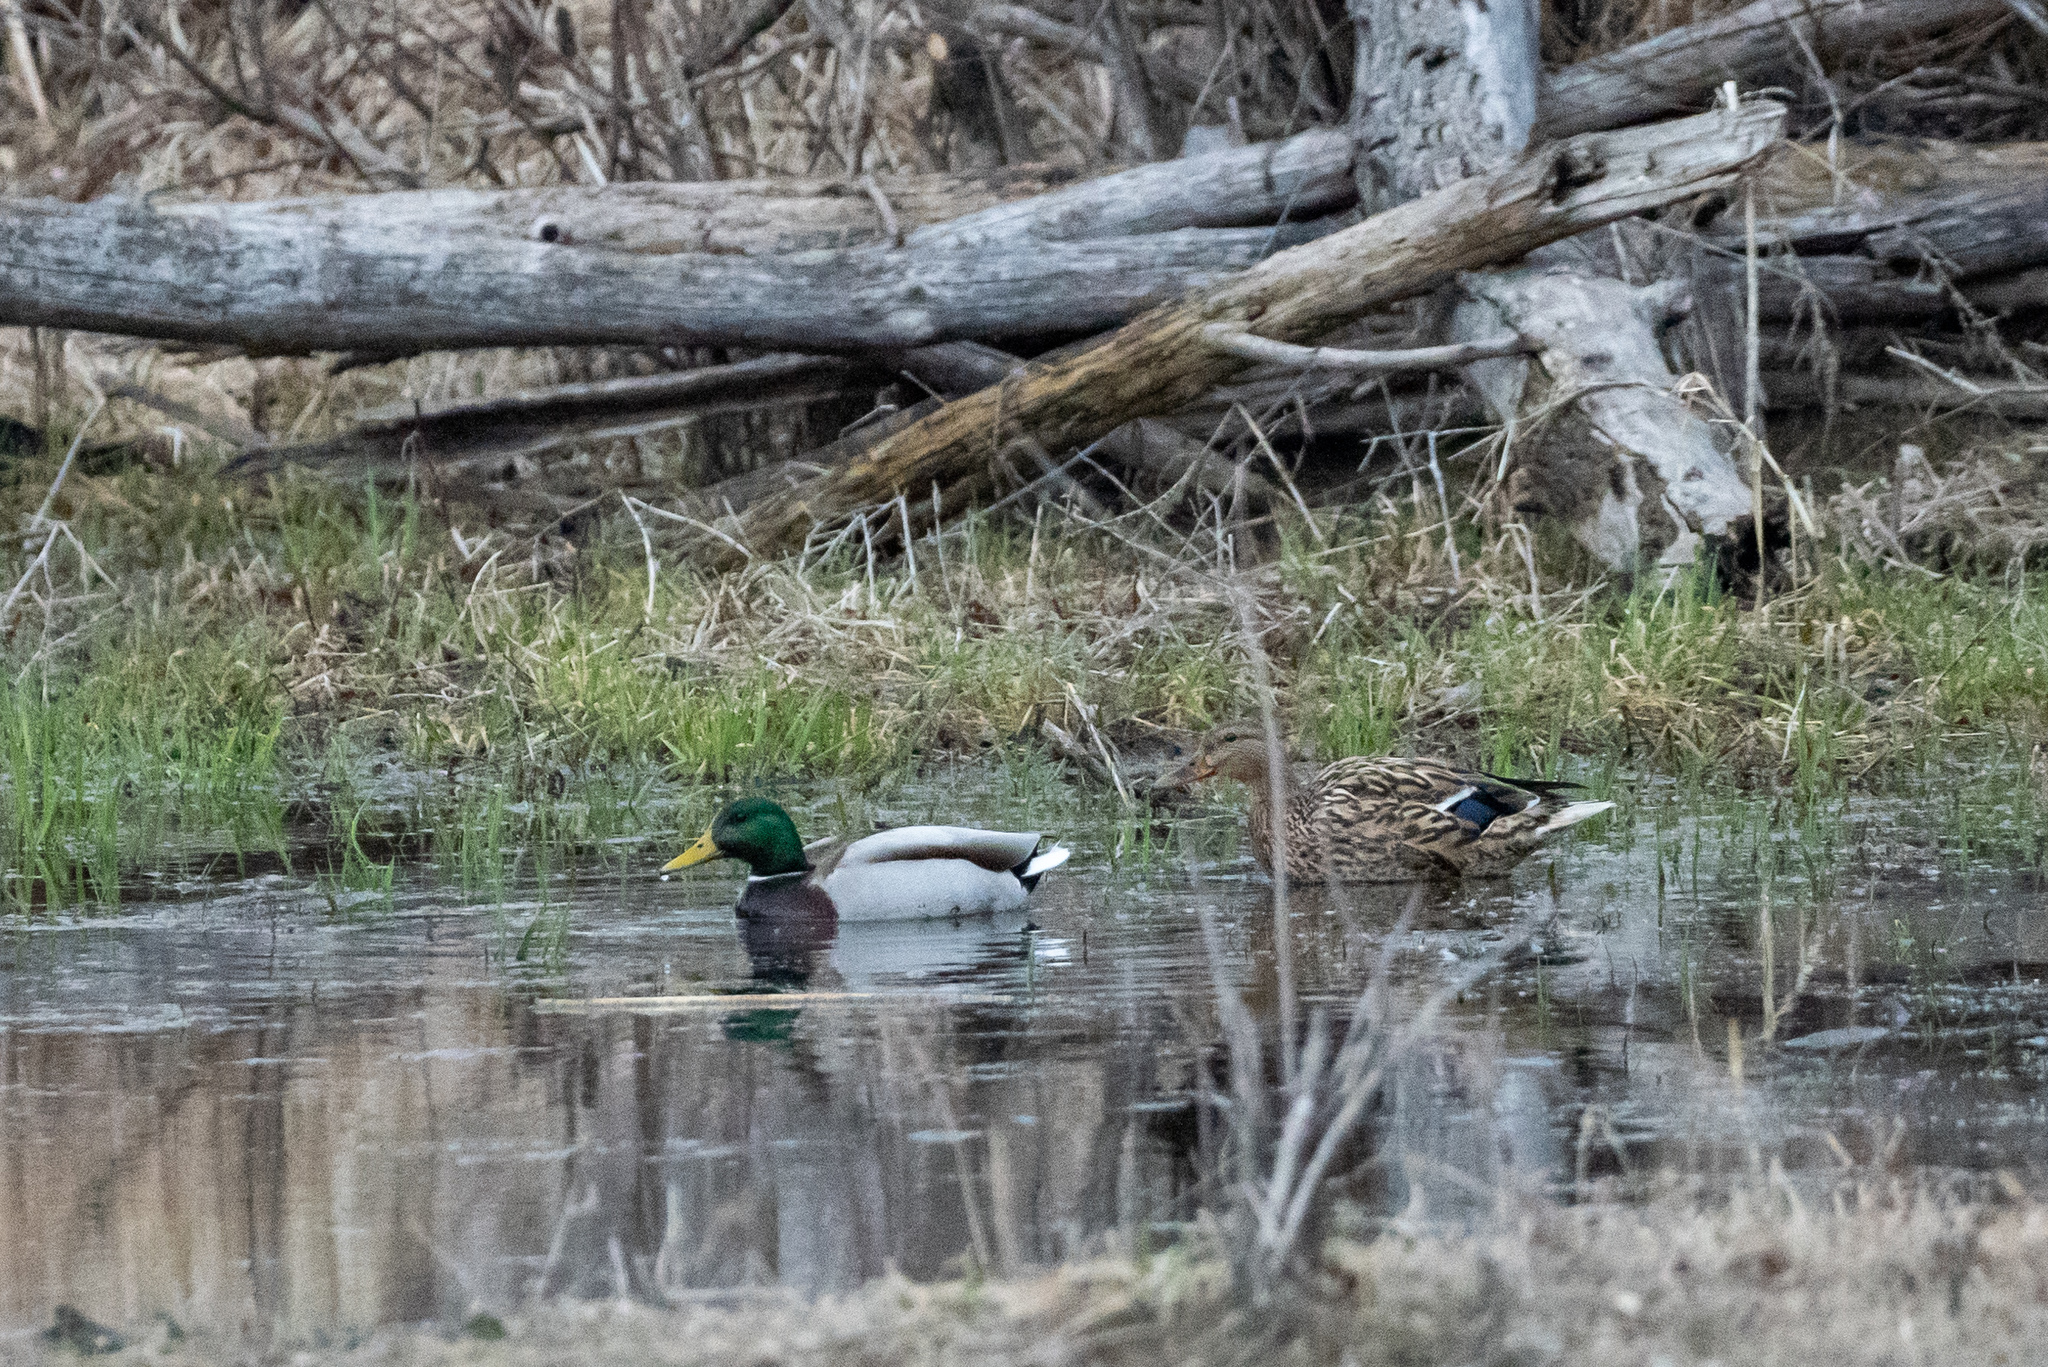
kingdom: Animalia
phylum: Chordata
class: Aves
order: Anseriformes
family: Anatidae
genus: Anas
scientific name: Anas platyrhynchos
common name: Mallard
